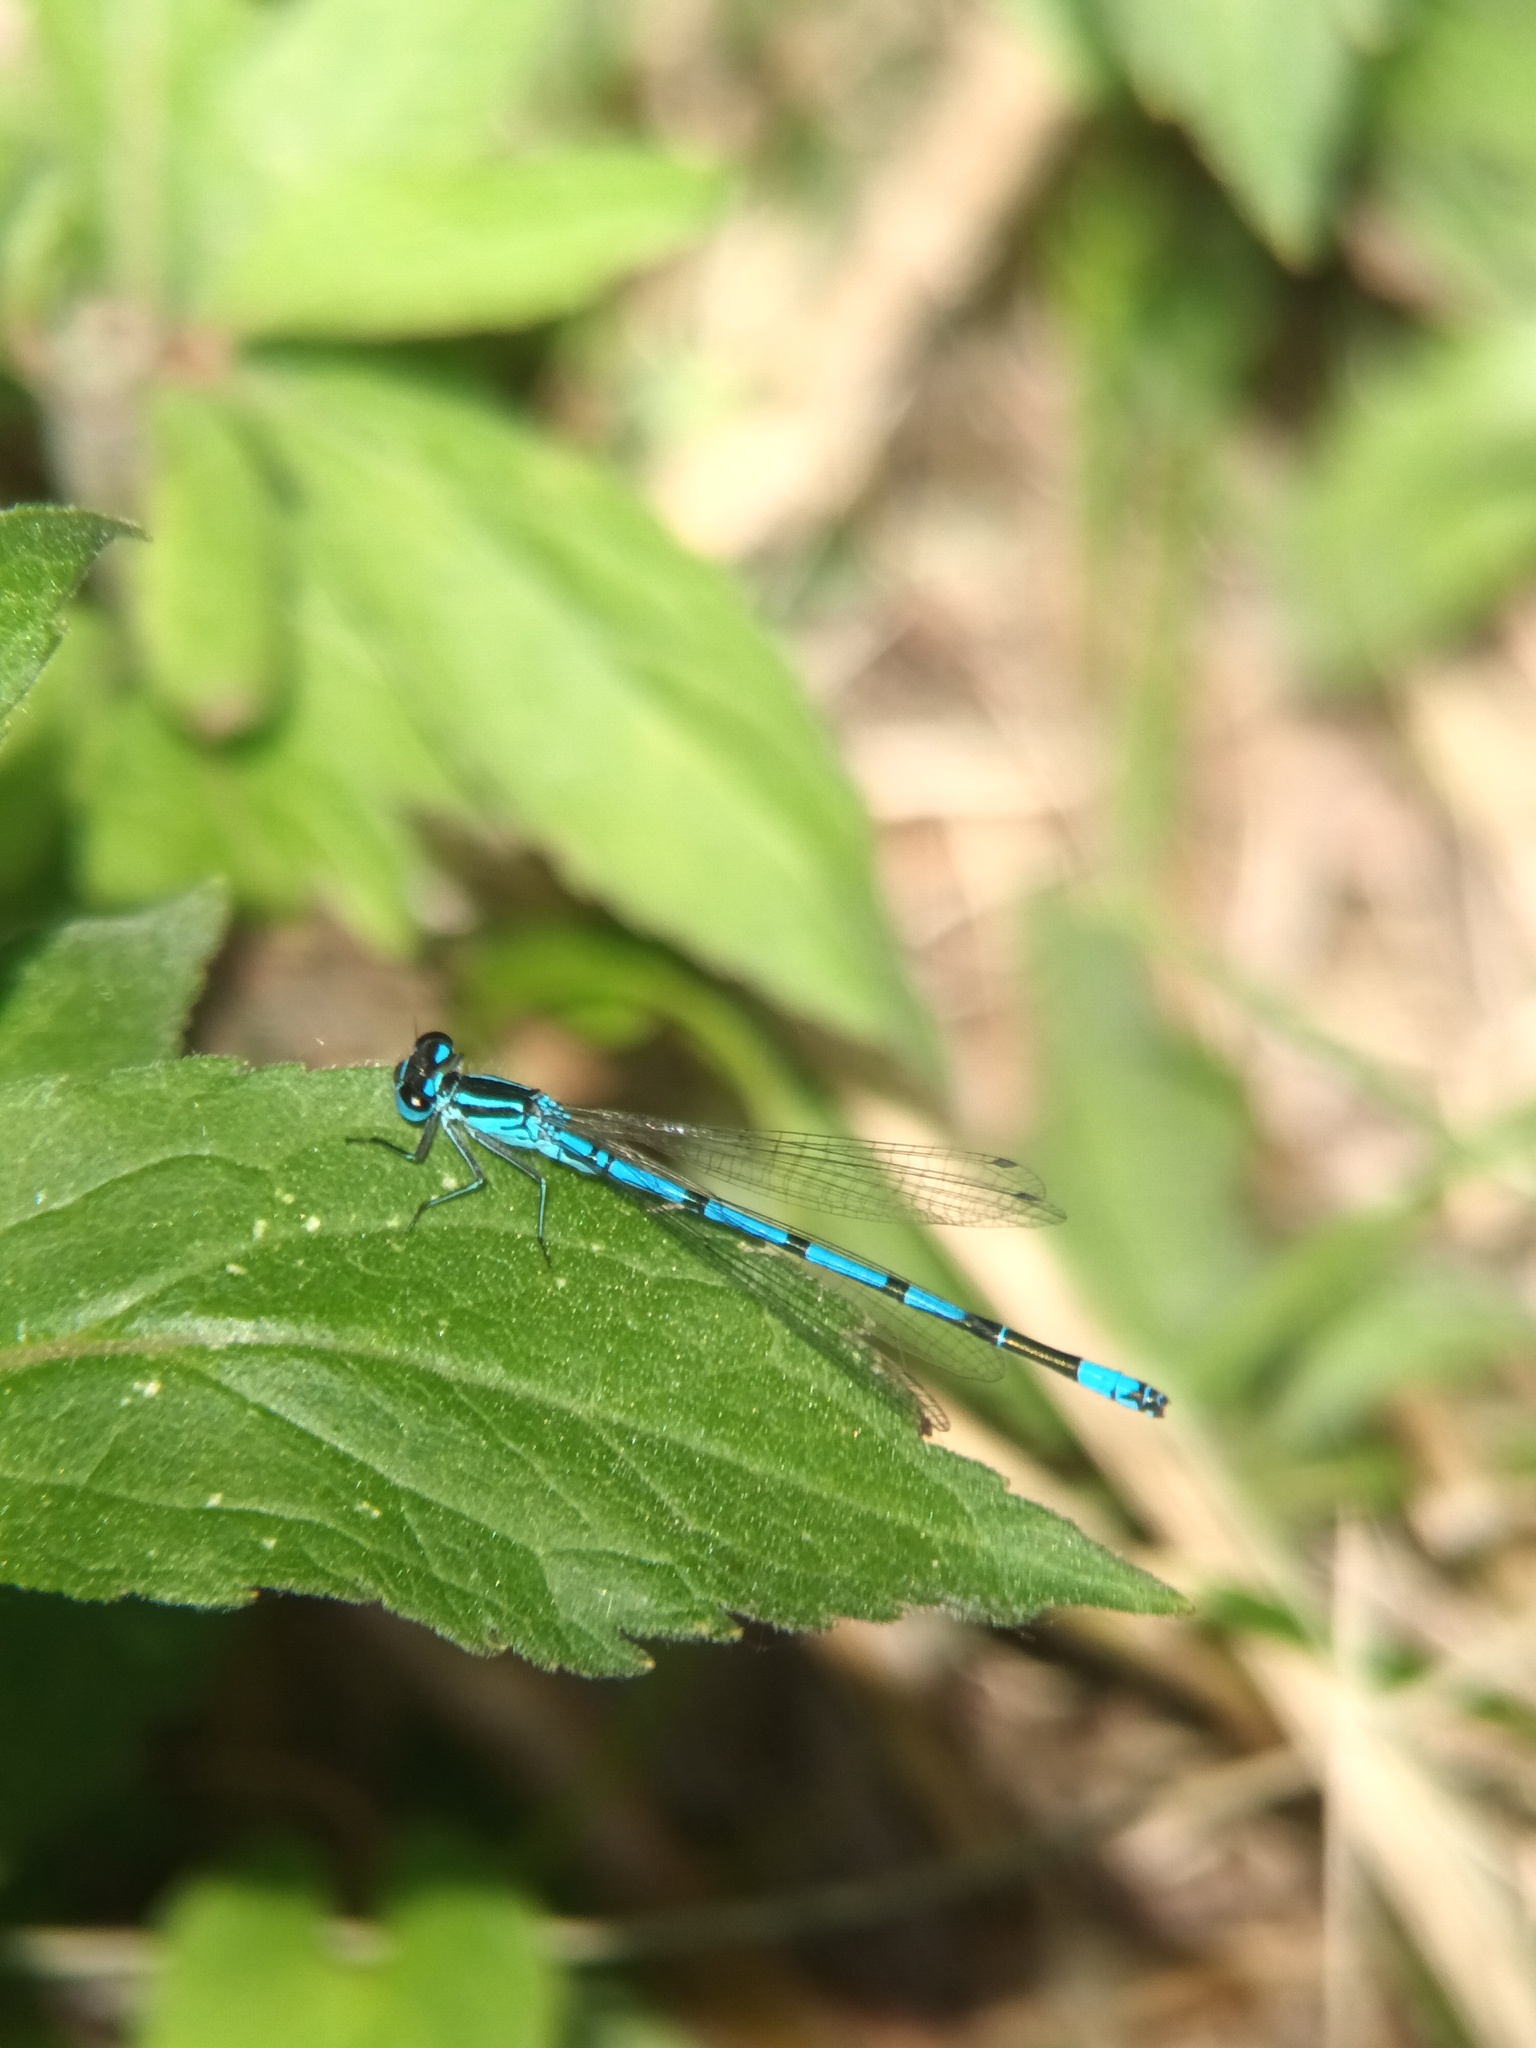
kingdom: Animalia
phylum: Arthropoda
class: Insecta
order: Odonata
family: Coenagrionidae
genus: Coenagrion
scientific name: Coenagrion puella
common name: Azure damselfly
